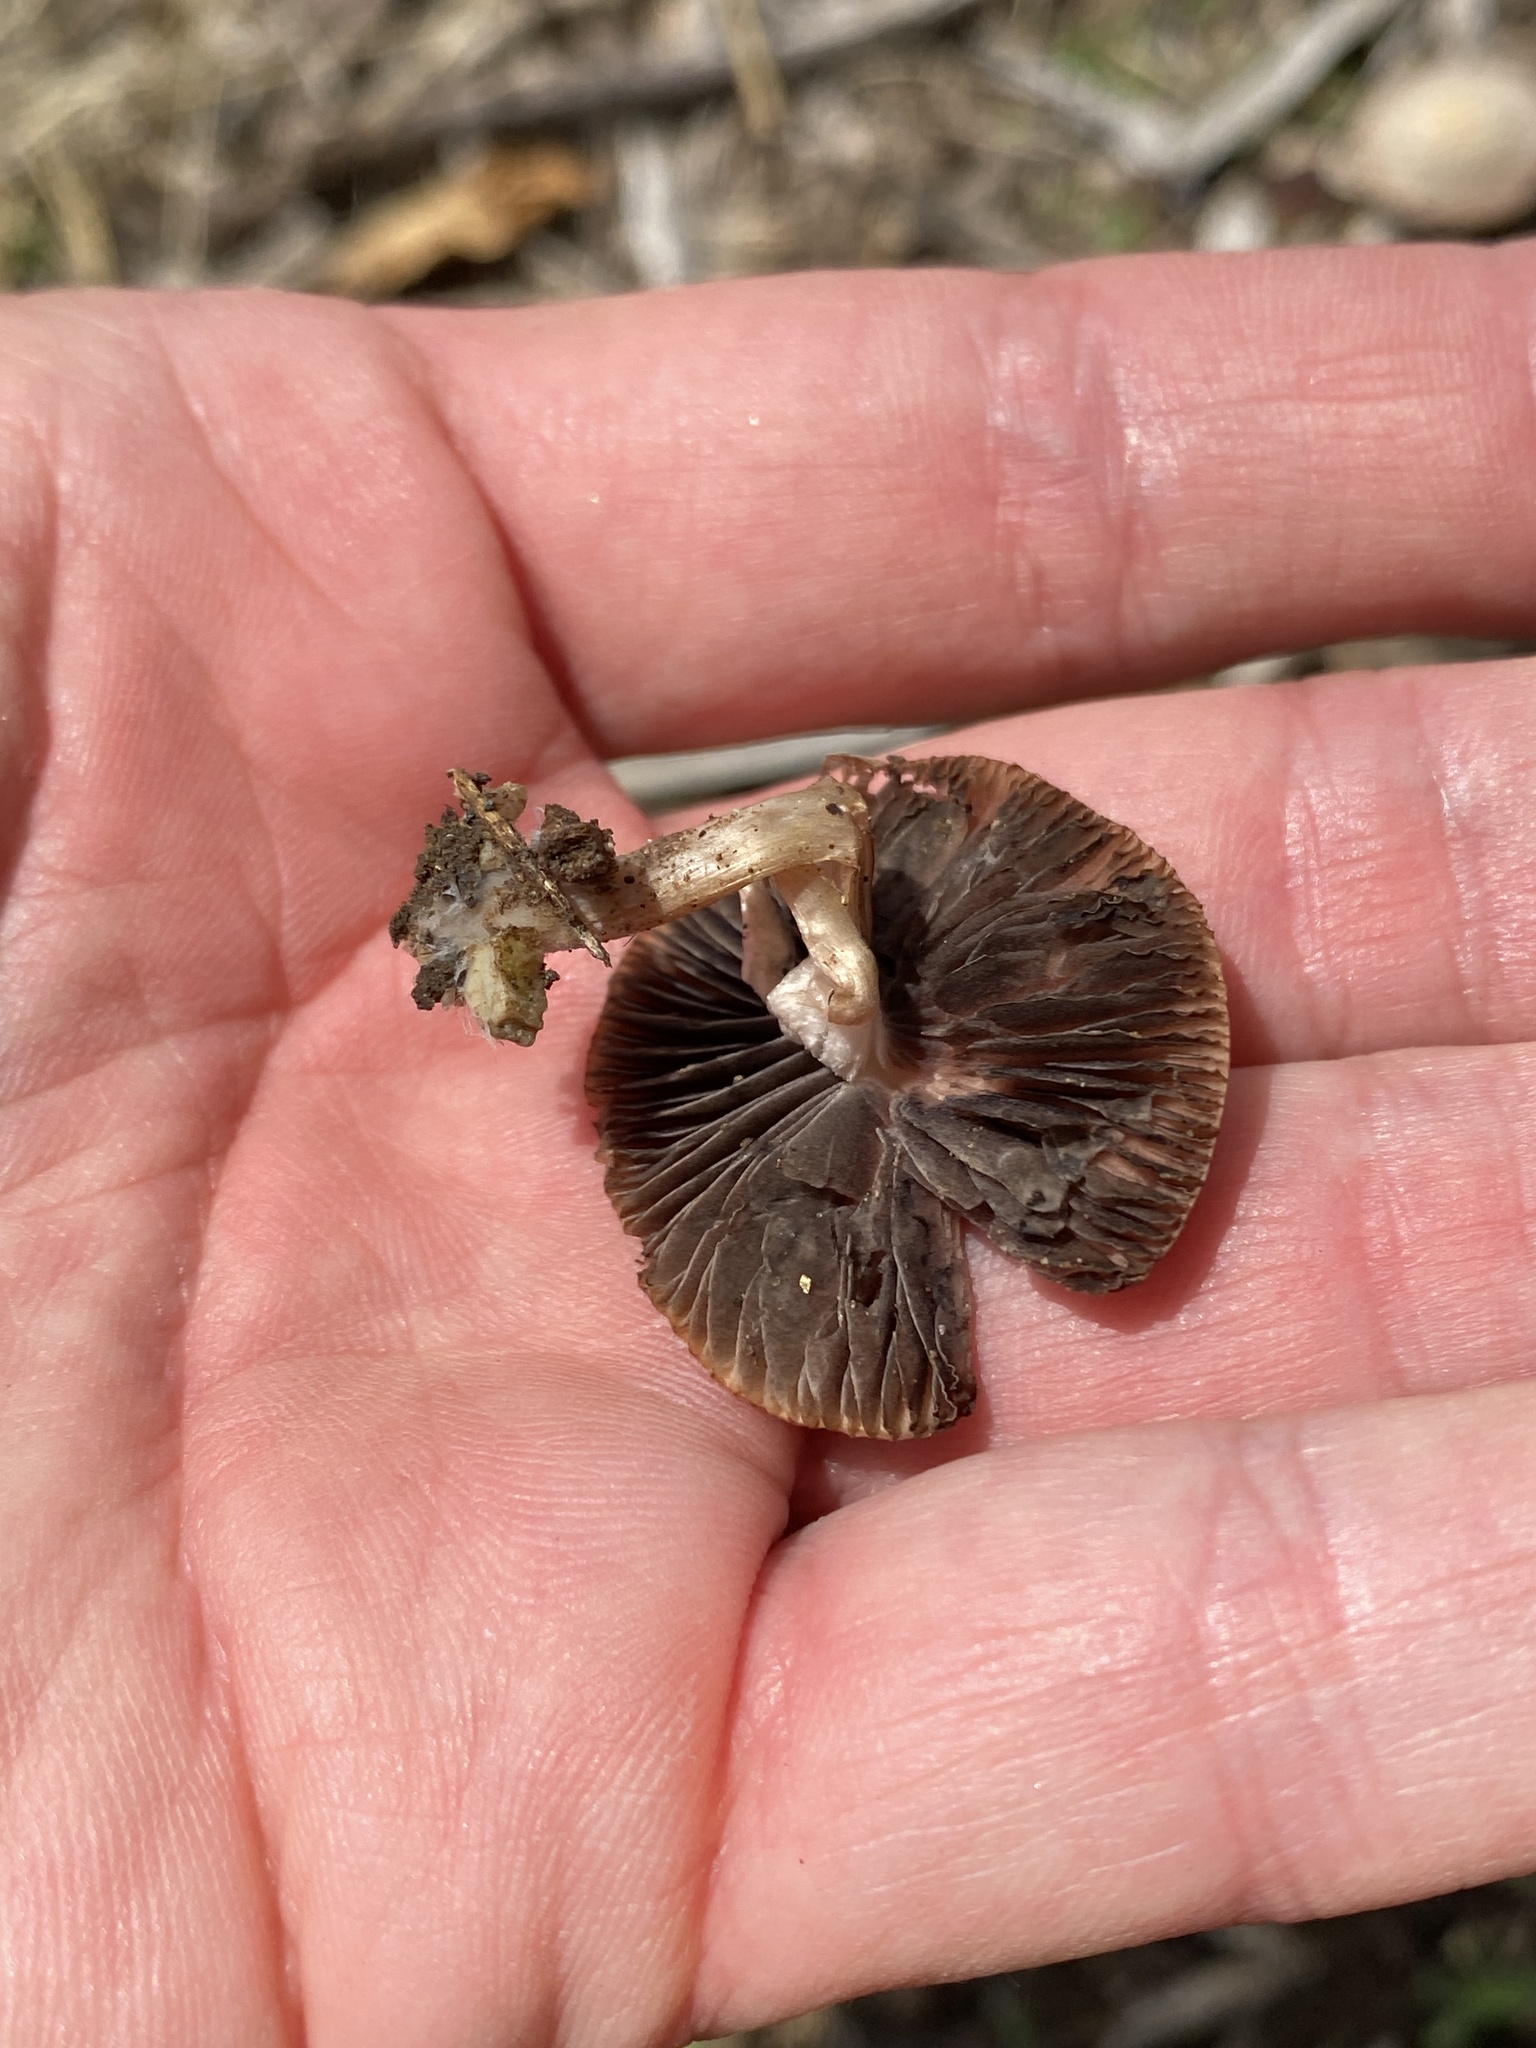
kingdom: Fungi
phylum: Basidiomycota
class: Agaricomycetes
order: Agaricales
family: Psathyrellaceae
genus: Psathyrella
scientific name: Psathyrella
